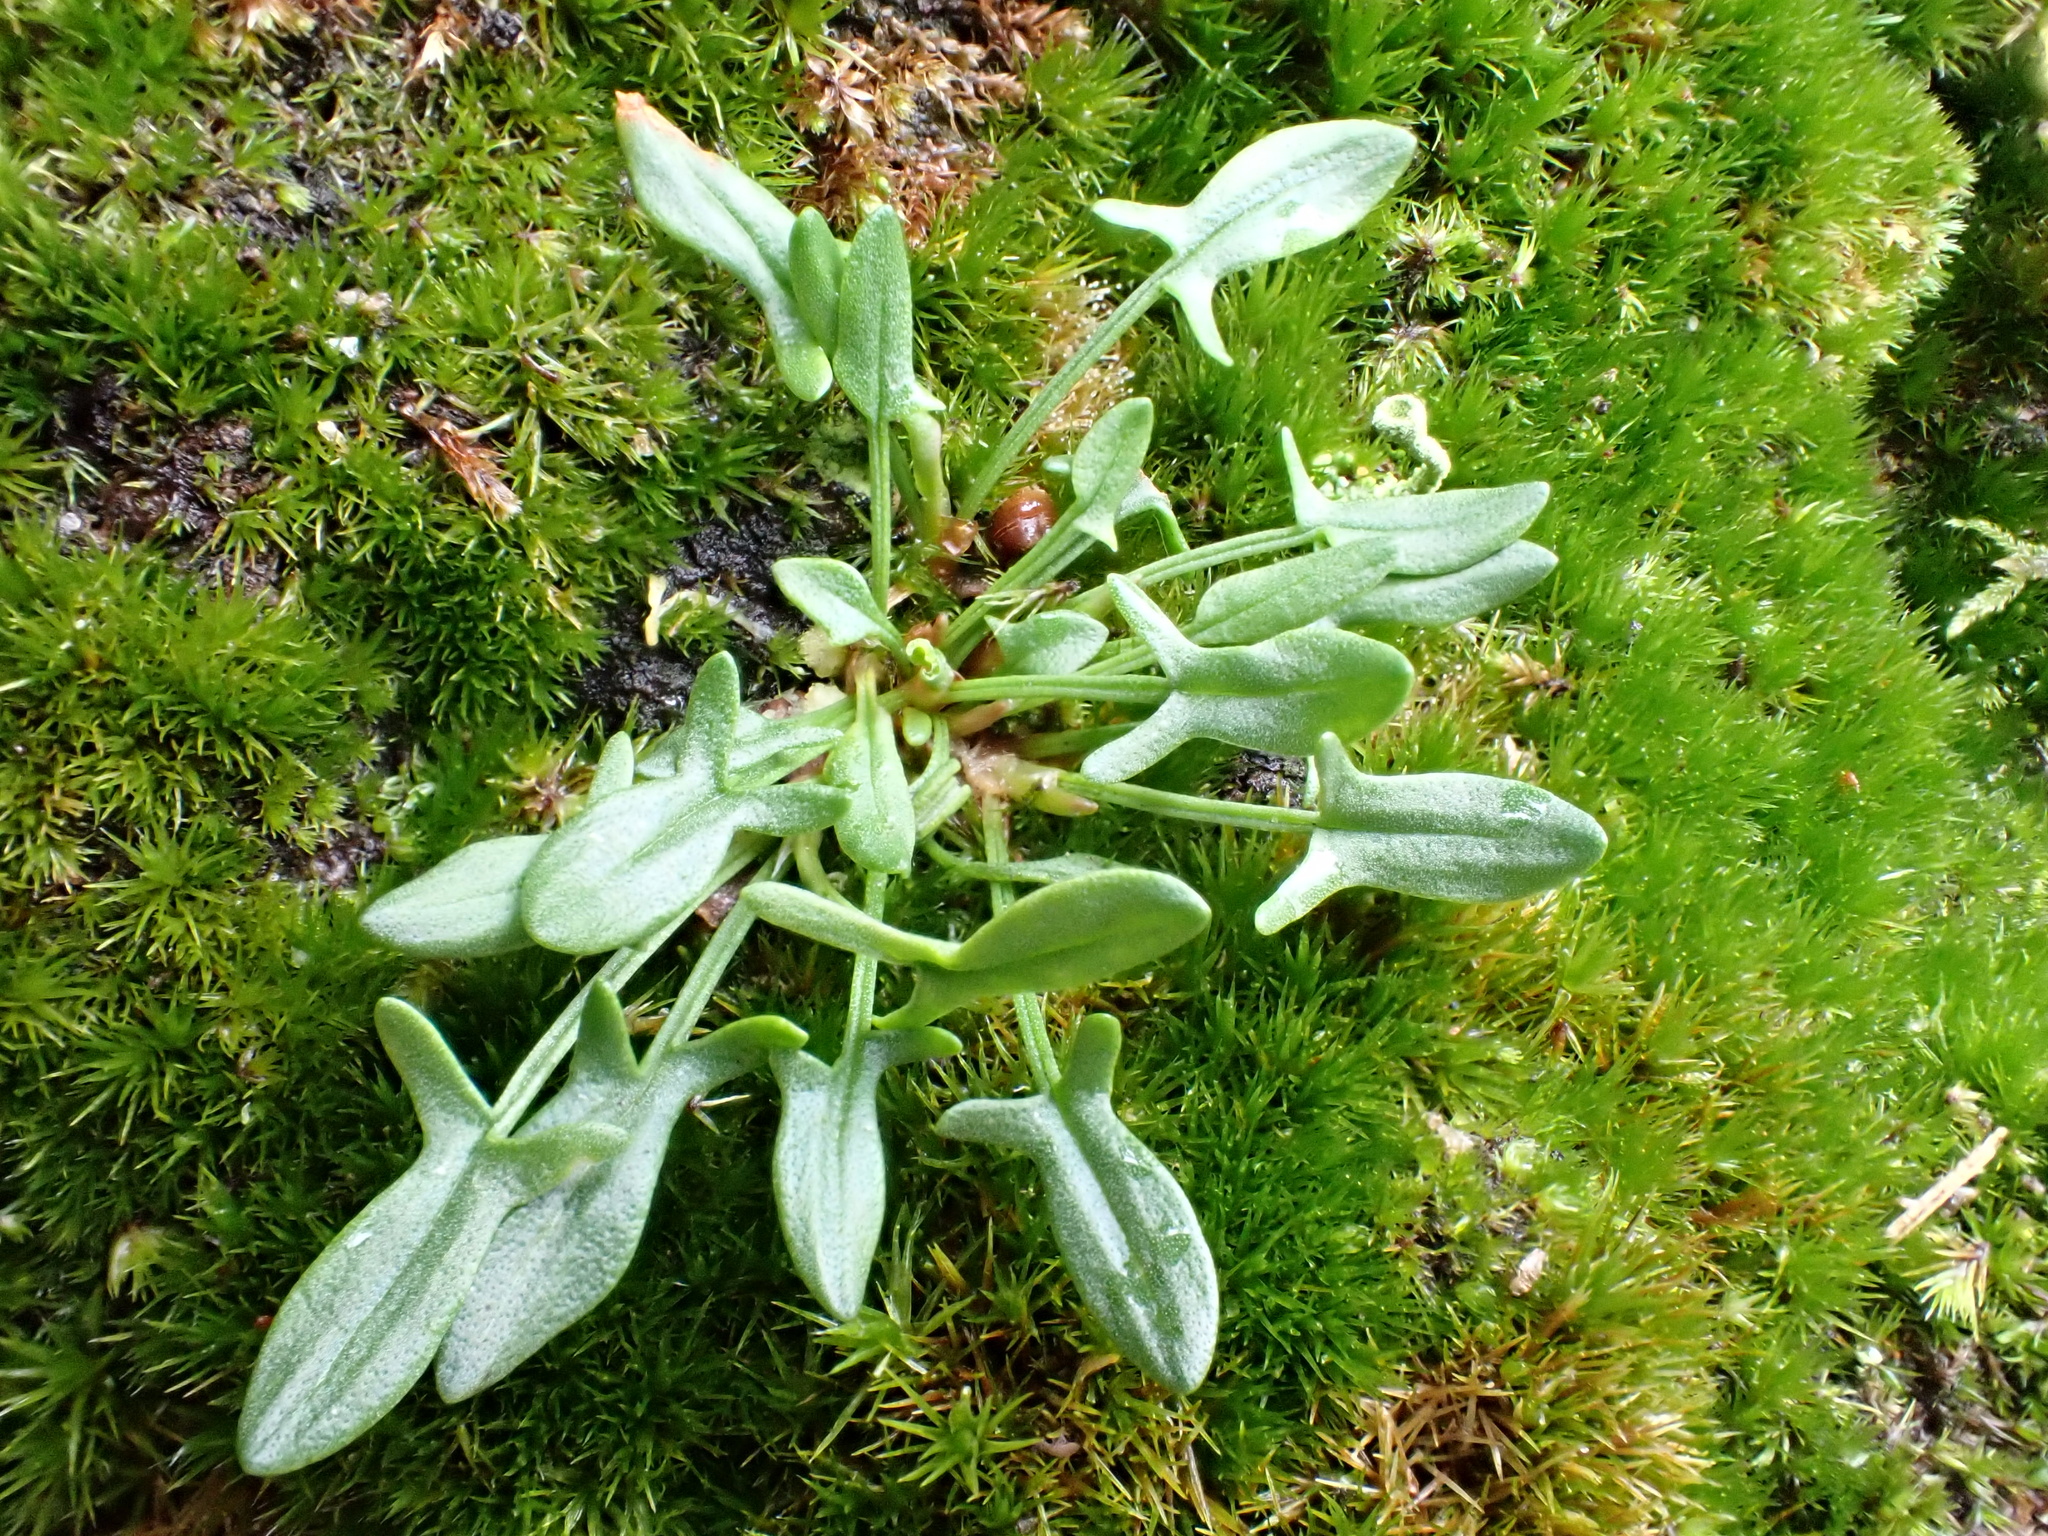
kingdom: Plantae
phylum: Tracheophyta
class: Magnoliopsida
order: Caryophyllales
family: Polygonaceae
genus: Rumex
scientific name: Rumex acetosella
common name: Common sheep sorrel
